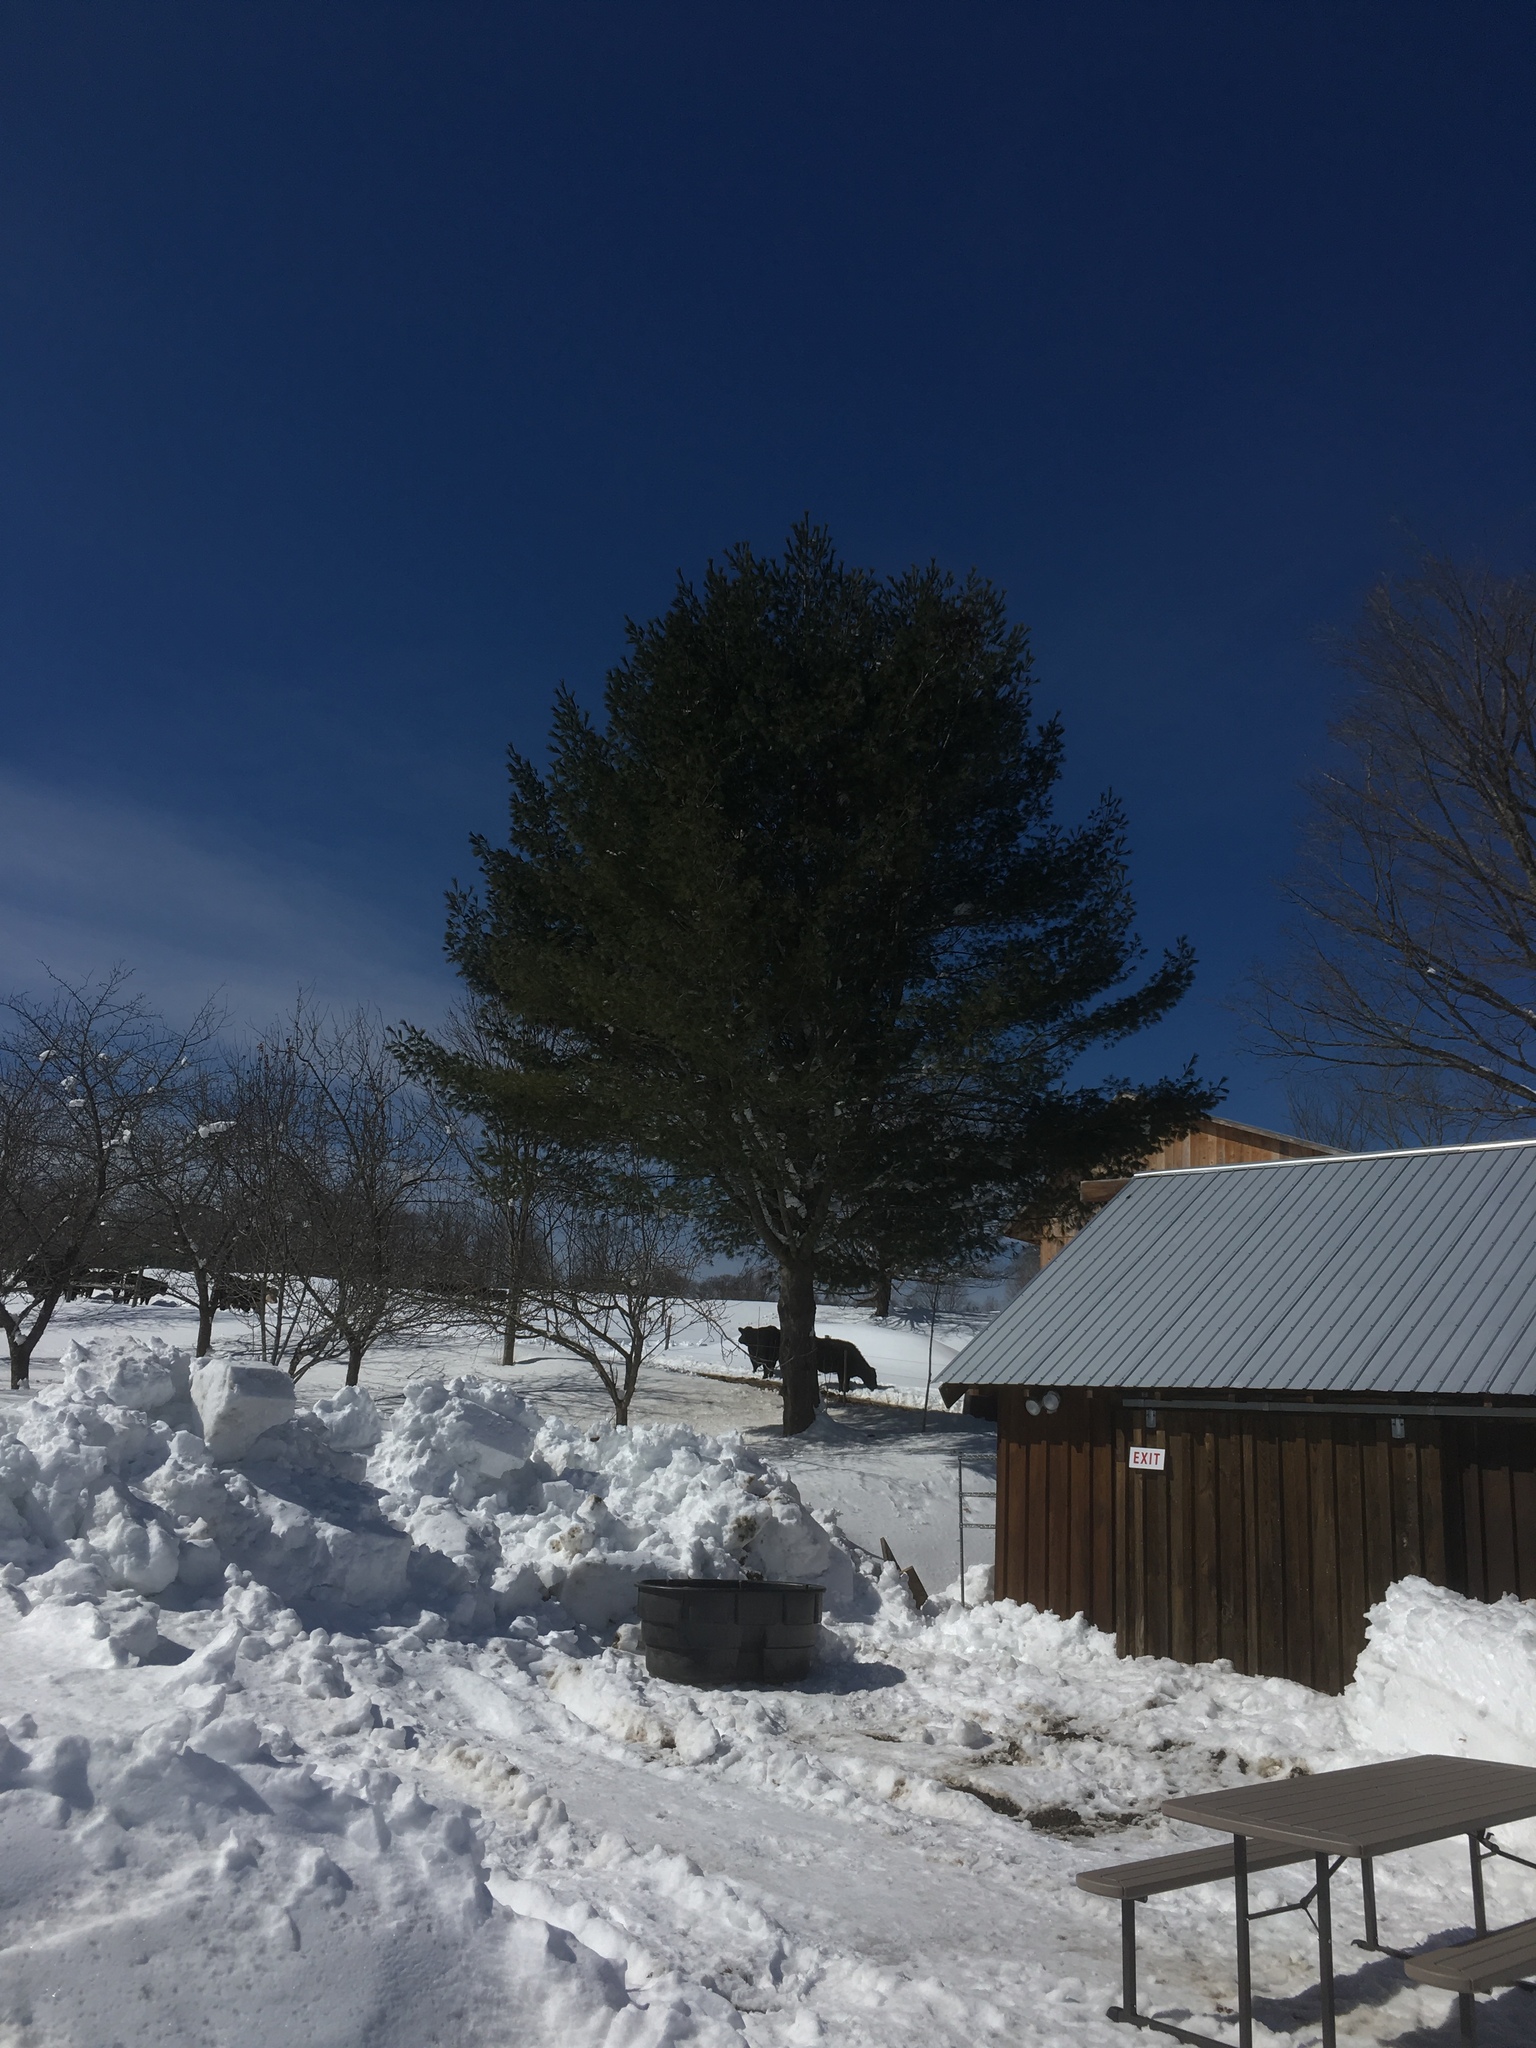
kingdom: Plantae
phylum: Tracheophyta
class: Pinopsida
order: Pinales
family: Pinaceae
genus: Pinus
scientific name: Pinus strobus
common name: Weymouth pine
